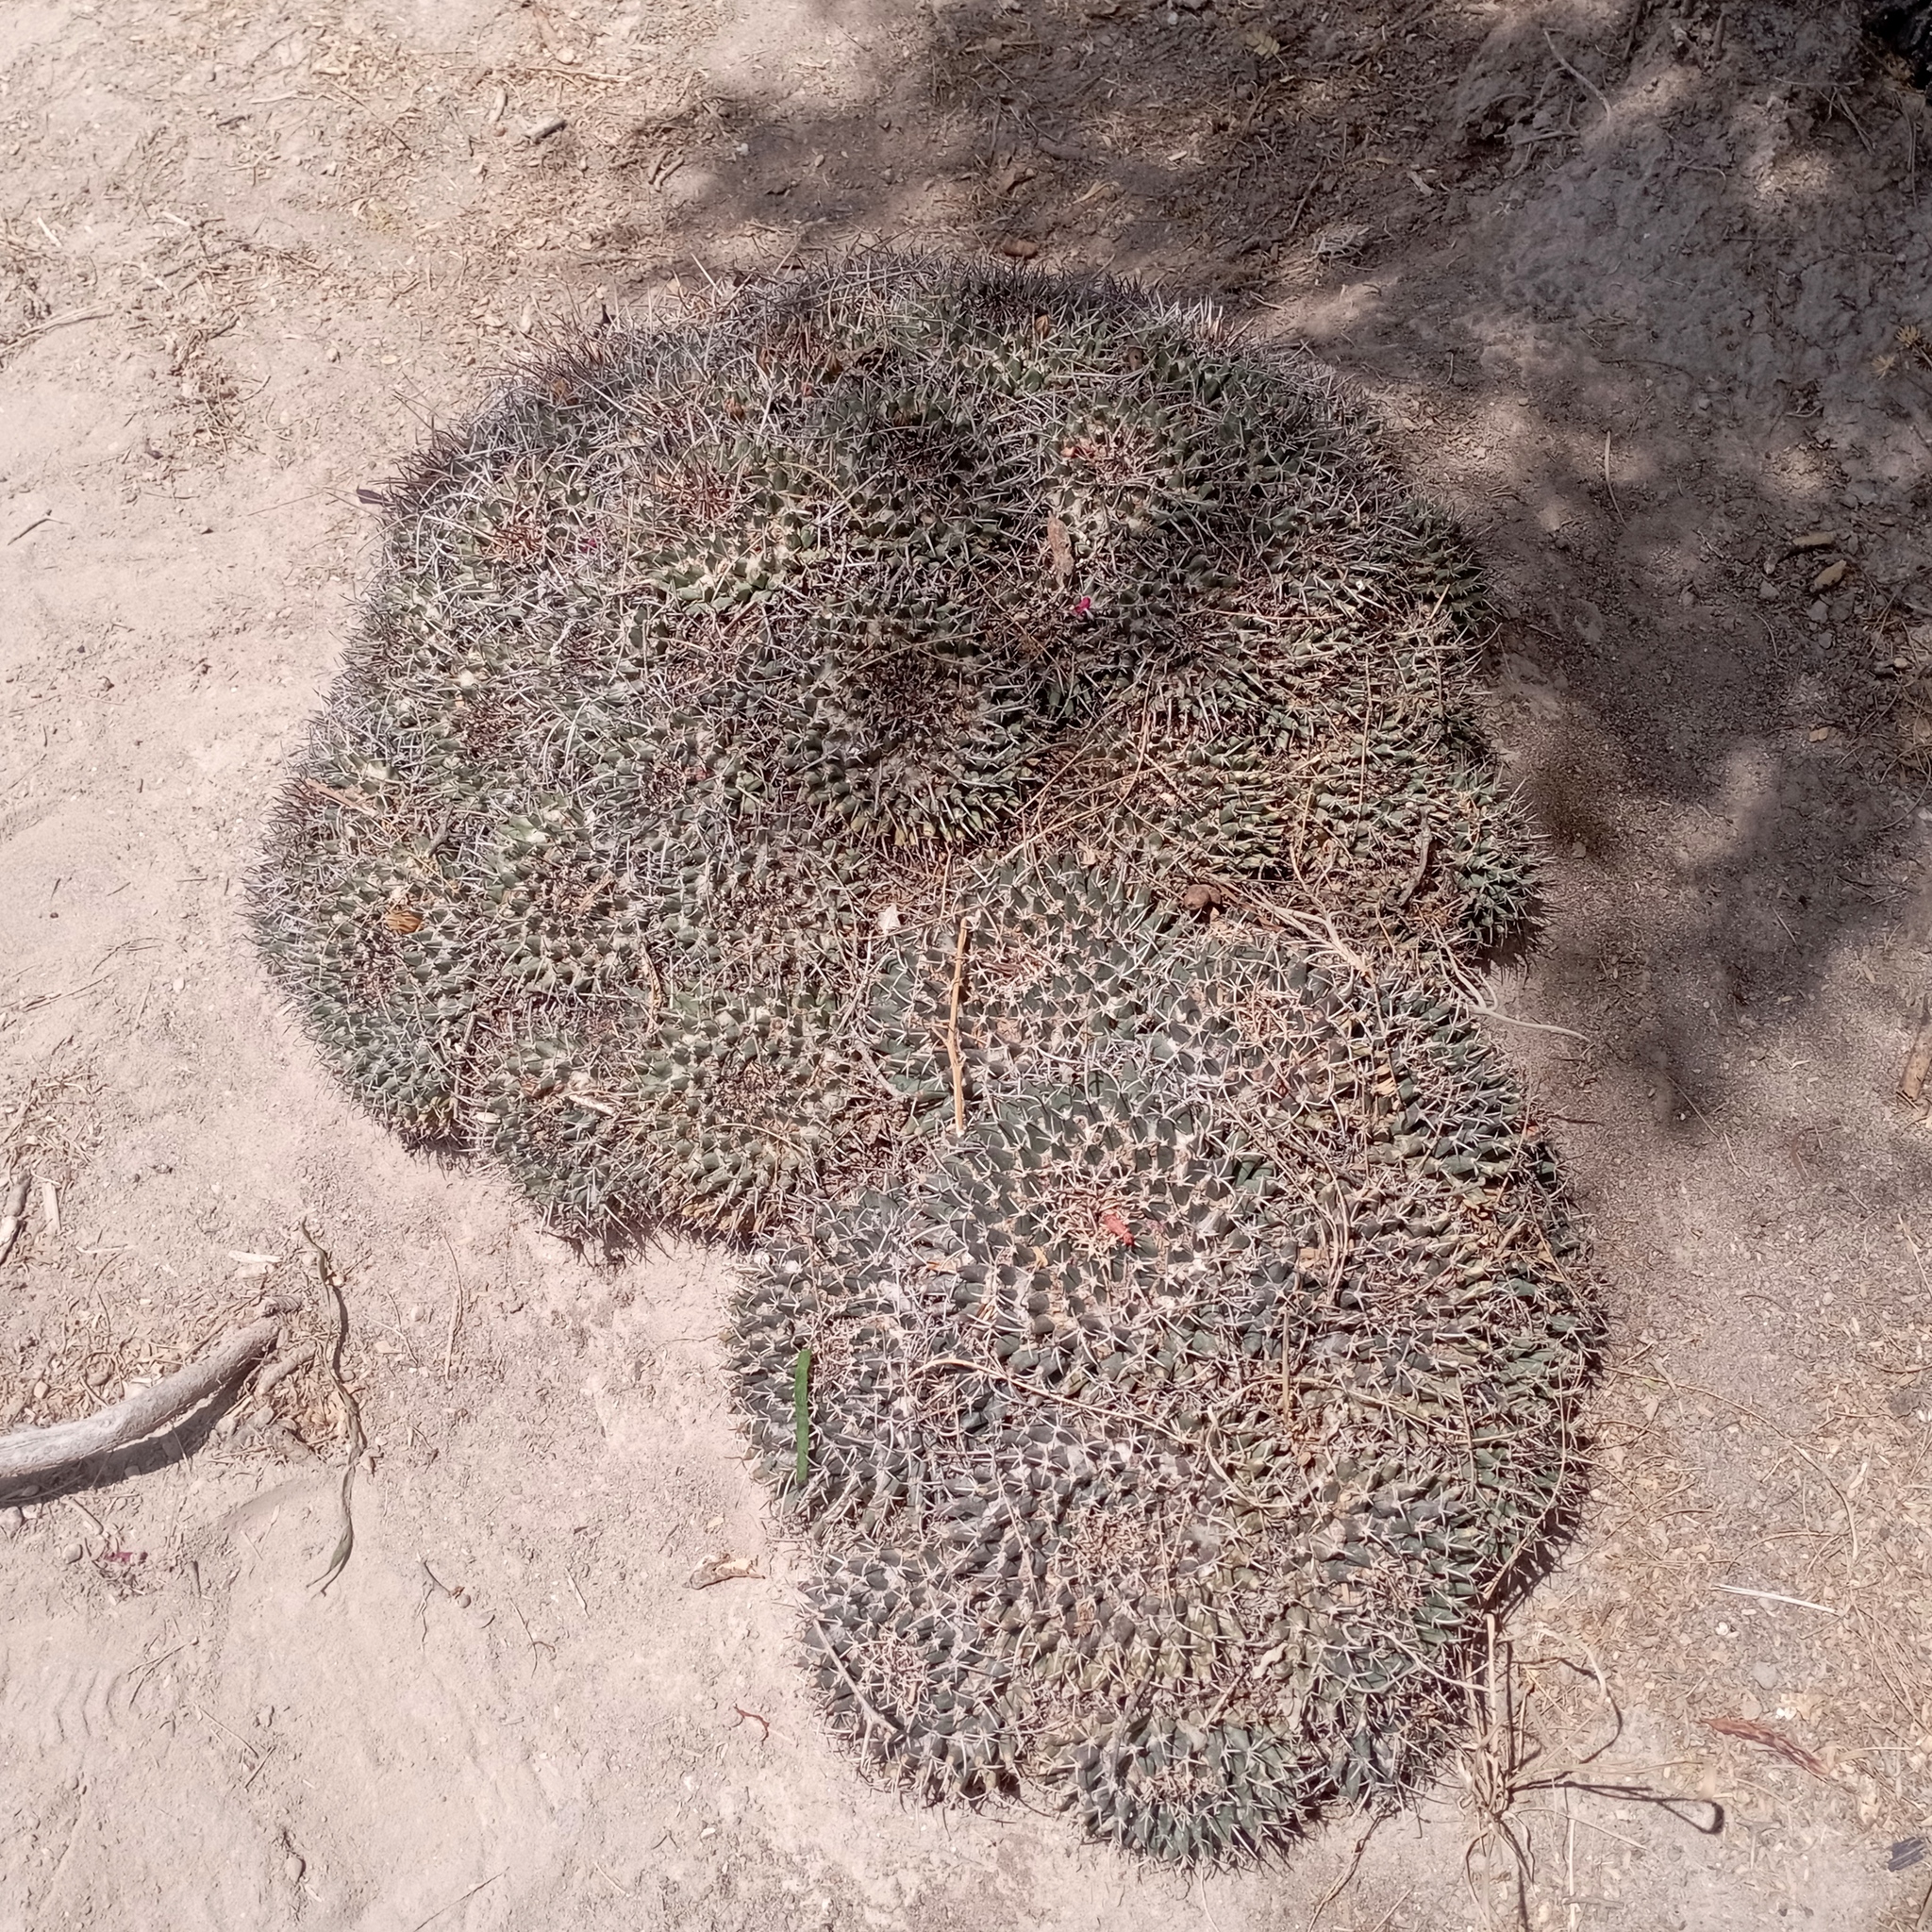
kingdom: Plantae
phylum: Tracheophyta
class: Magnoliopsida
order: Caryophyllales
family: Cactaceae
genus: Mammillaria
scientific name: Mammillaria magnimamma
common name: Mexican pincushion
